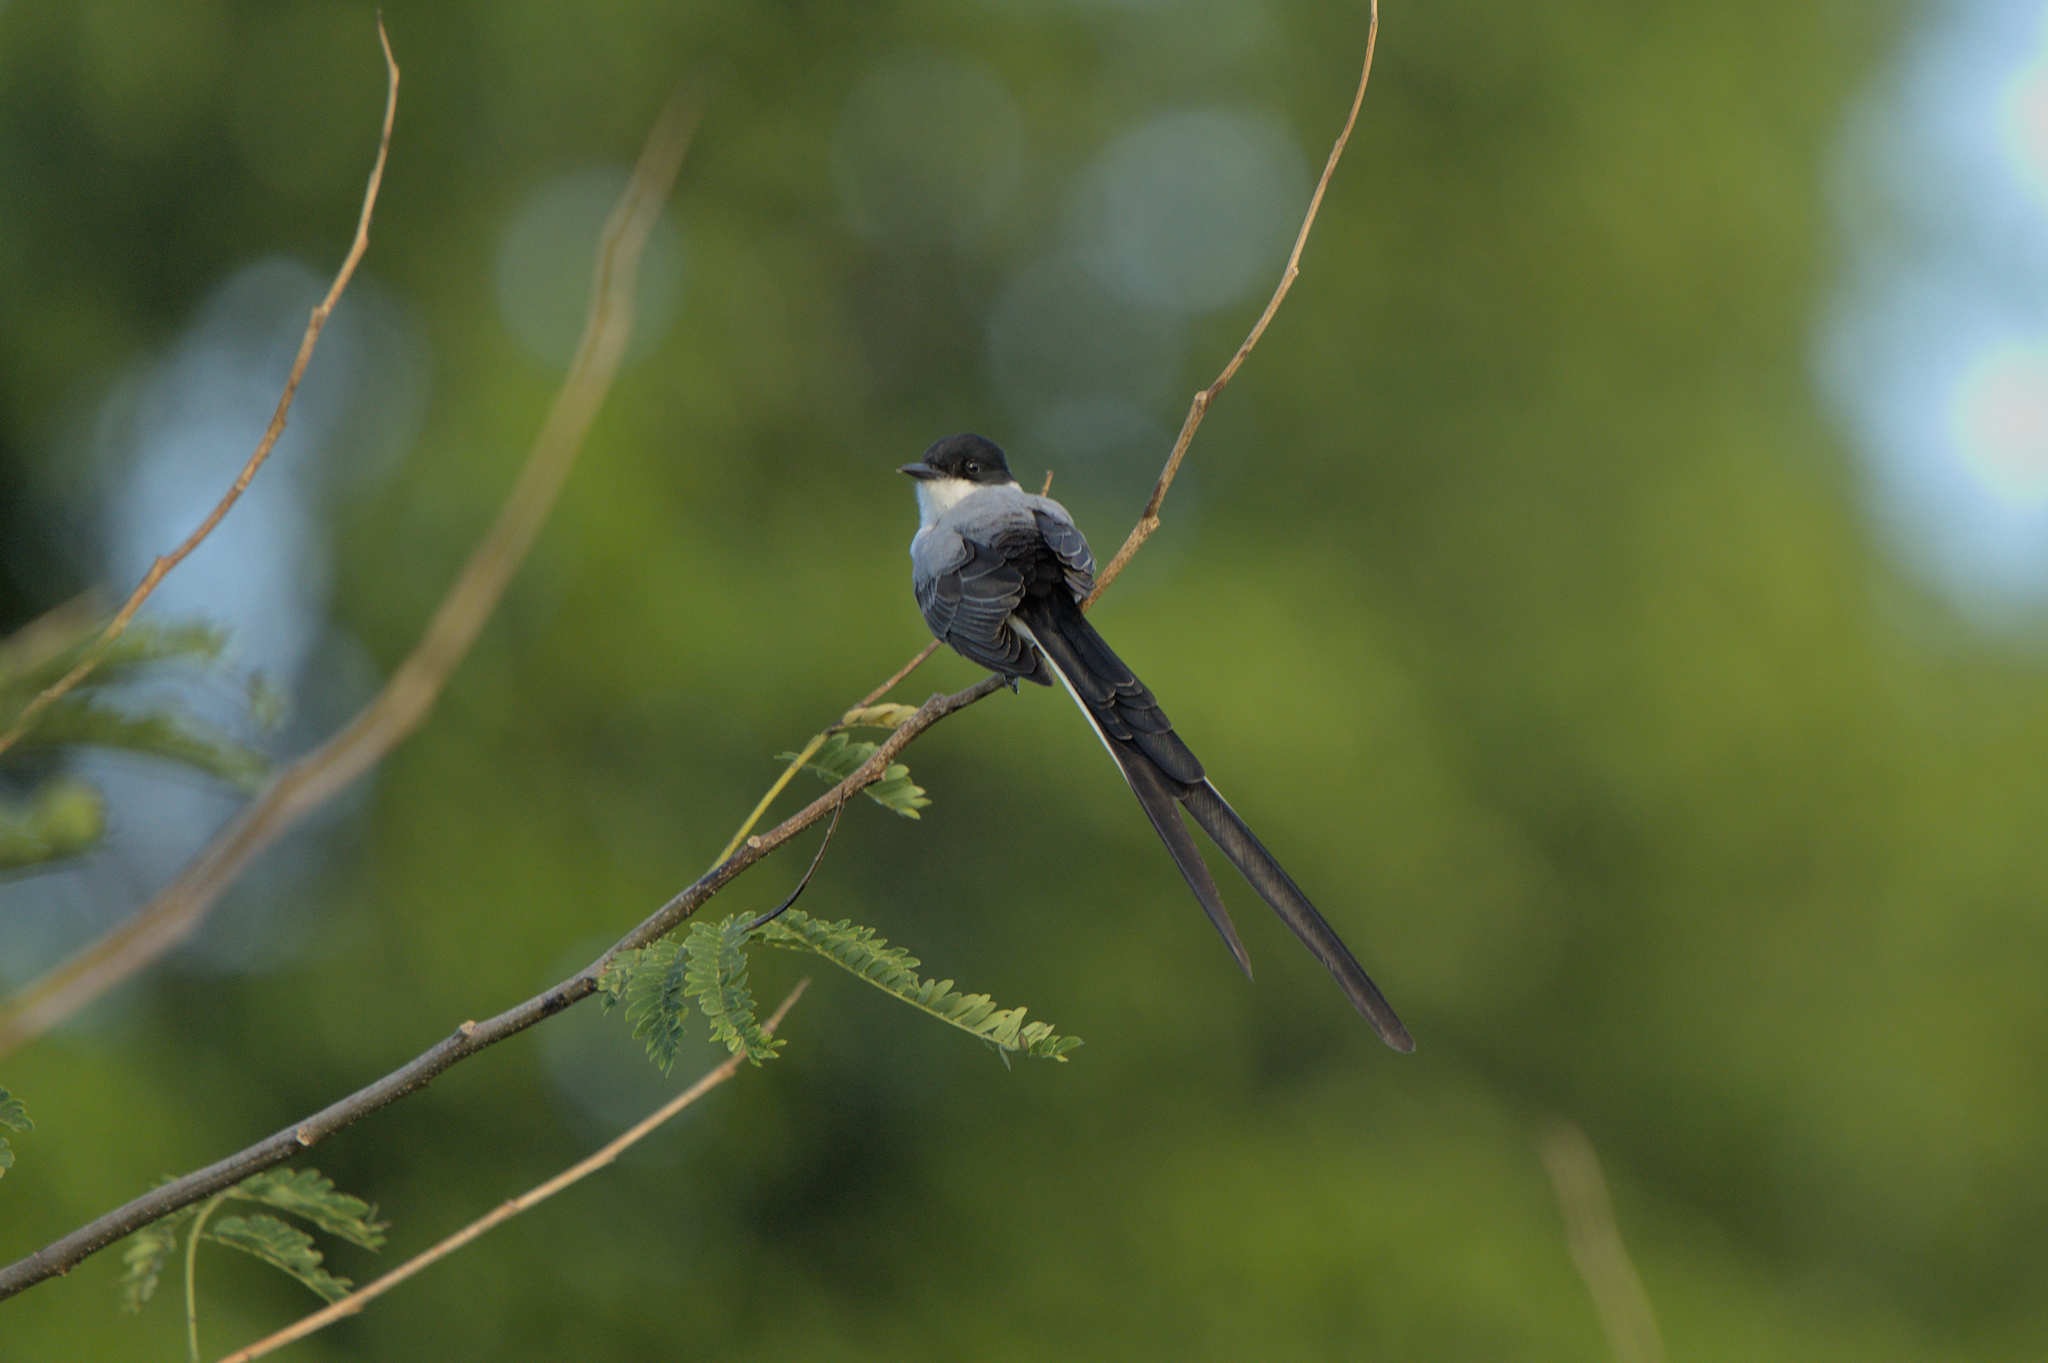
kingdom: Animalia
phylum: Chordata
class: Aves
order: Passeriformes
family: Tyrannidae
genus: Tyrannus
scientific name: Tyrannus savana
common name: Fork-tailed flycatcher
